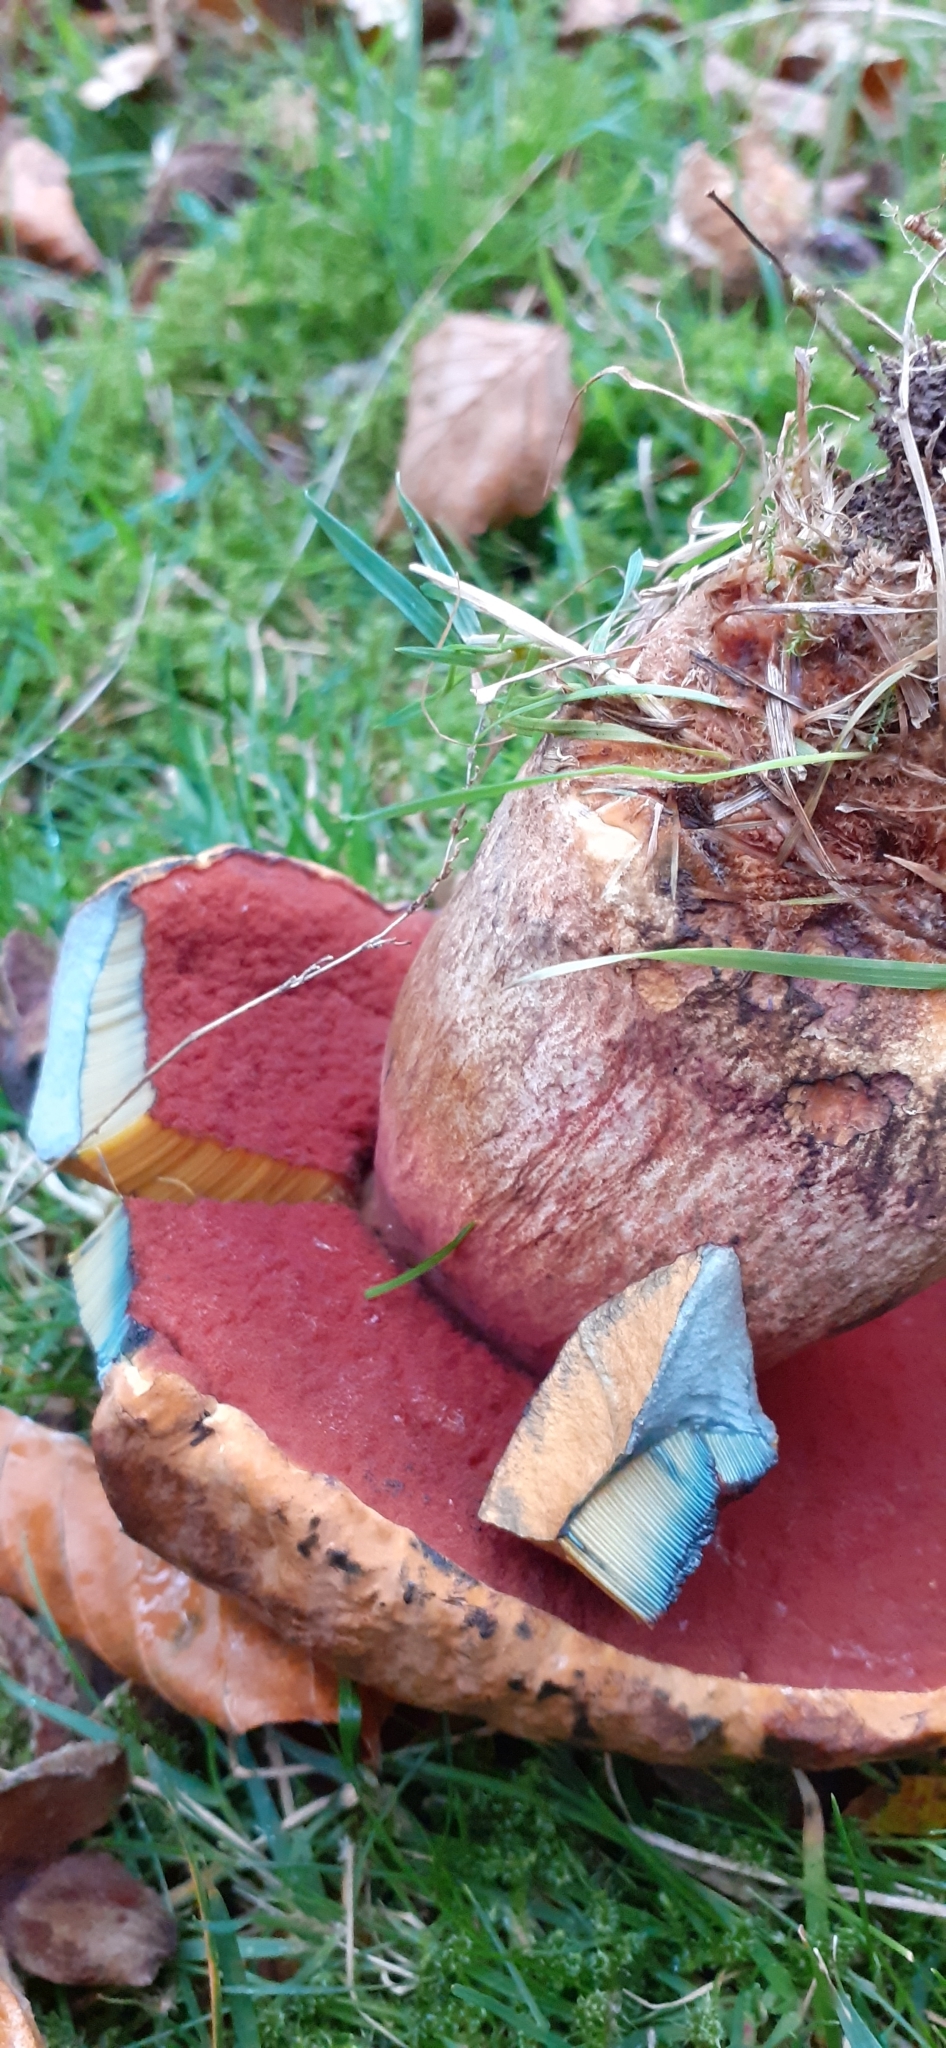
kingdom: Fungi
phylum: Basidiomycota
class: Agaricomycetes
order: Boletales
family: Boletaceae
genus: Neoboletus
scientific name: Neoboletus luridiformis
